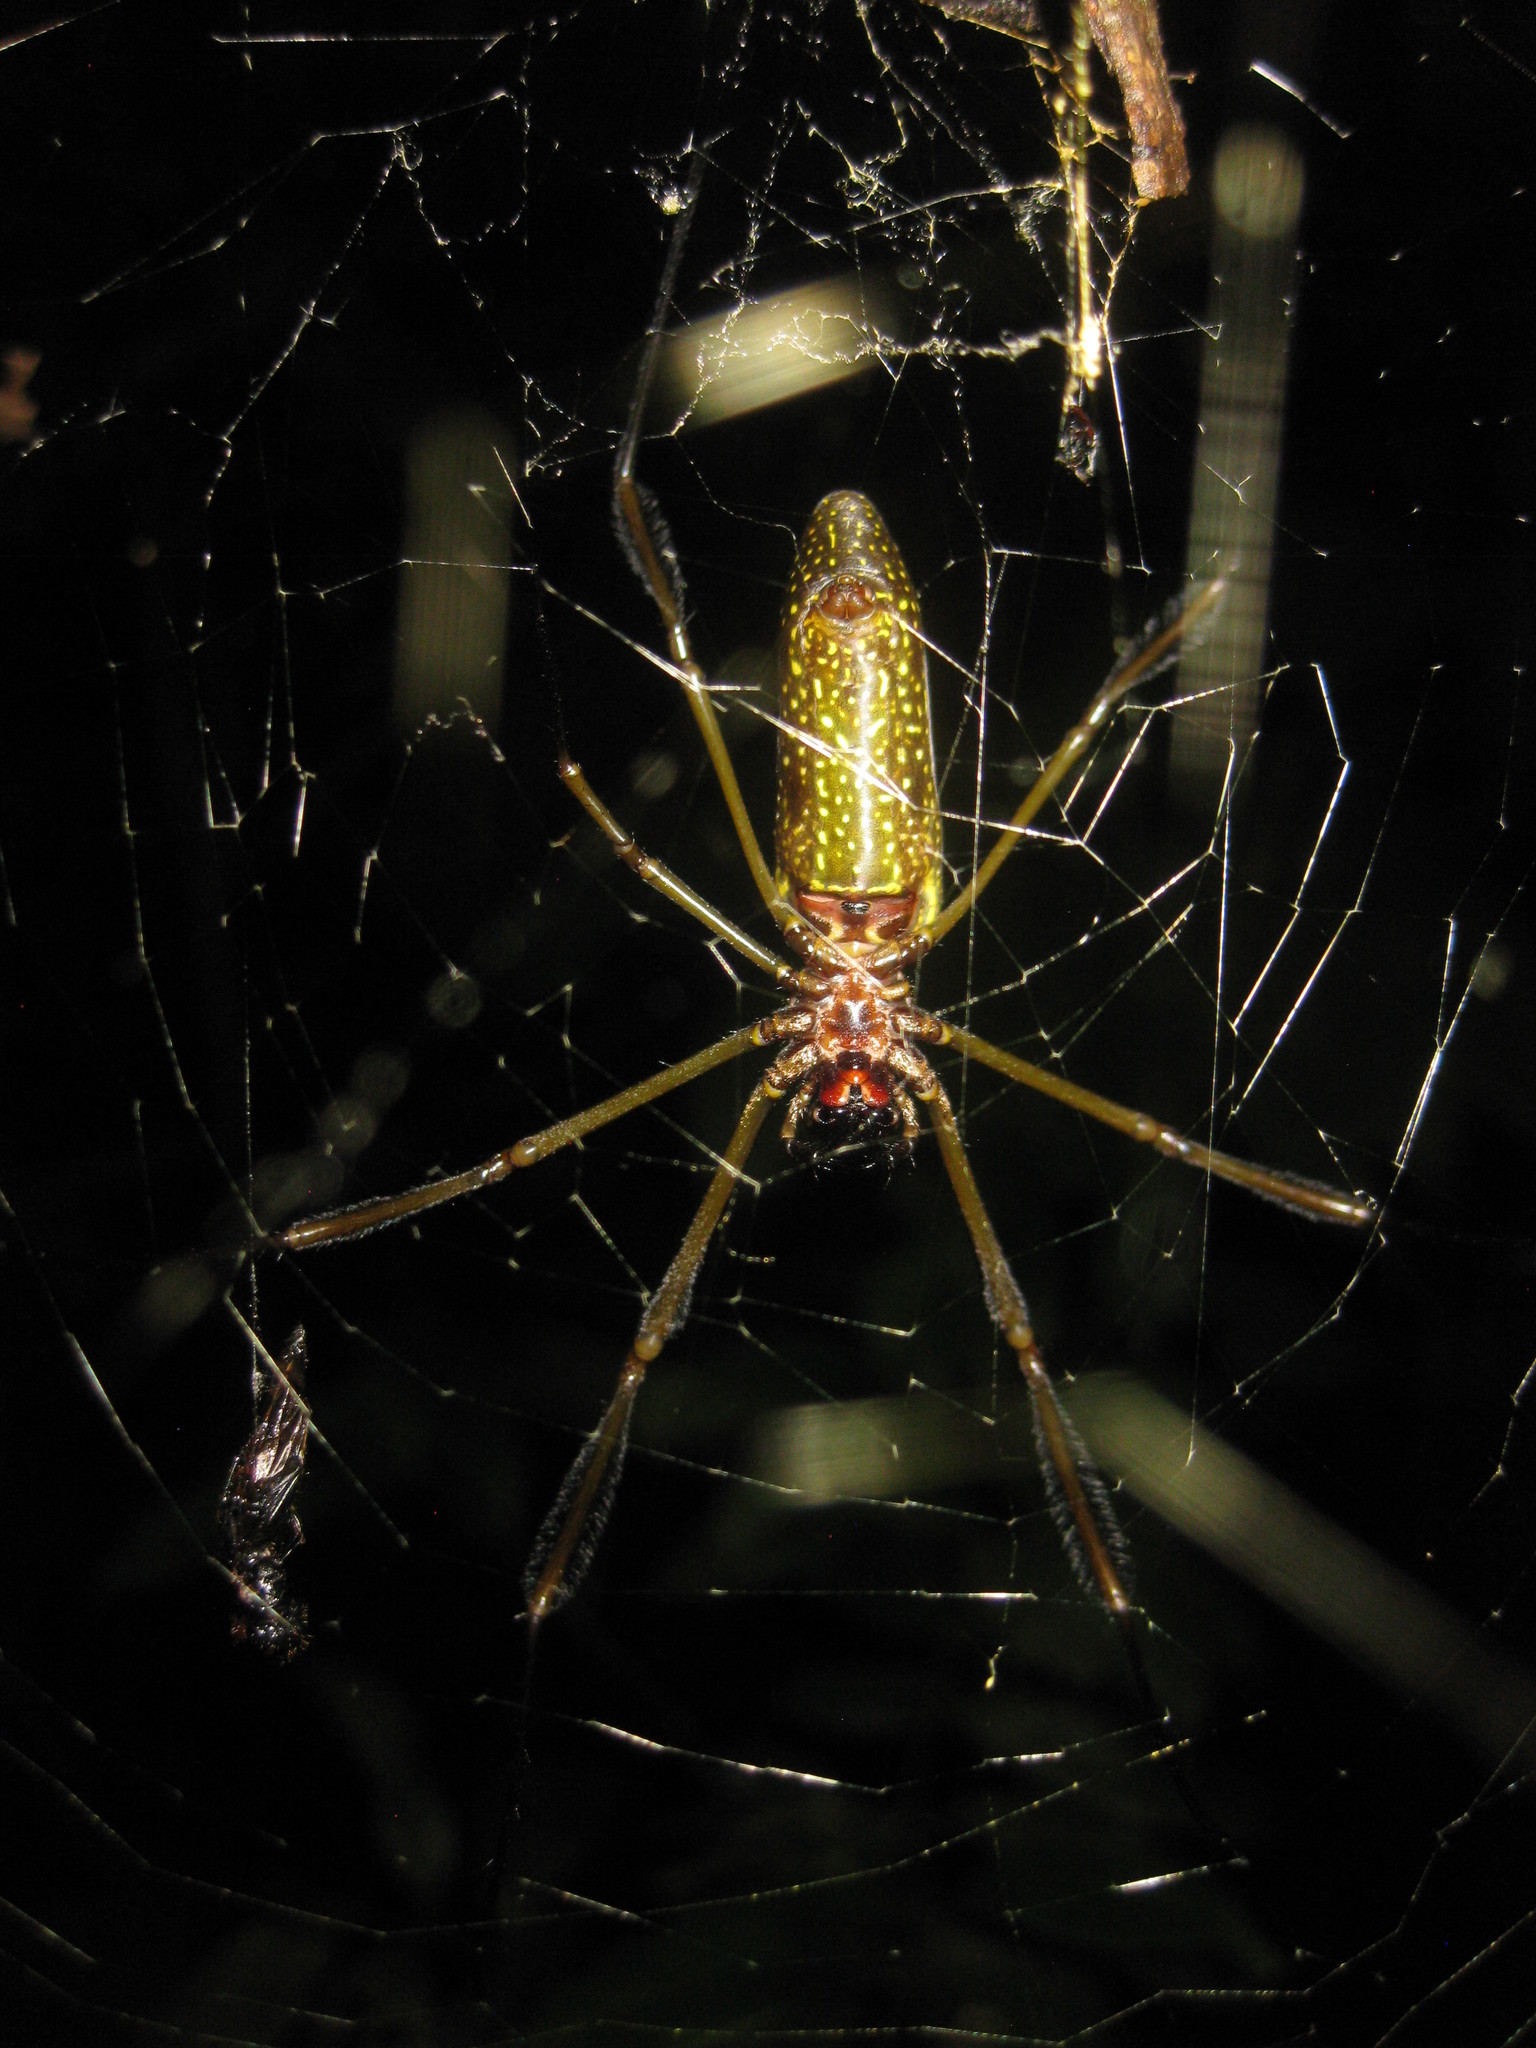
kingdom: Animalia
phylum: Arthropoda
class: Arachnida
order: Araneae
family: Araneidae
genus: Trichonephila
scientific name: Trichonephila clavipes
